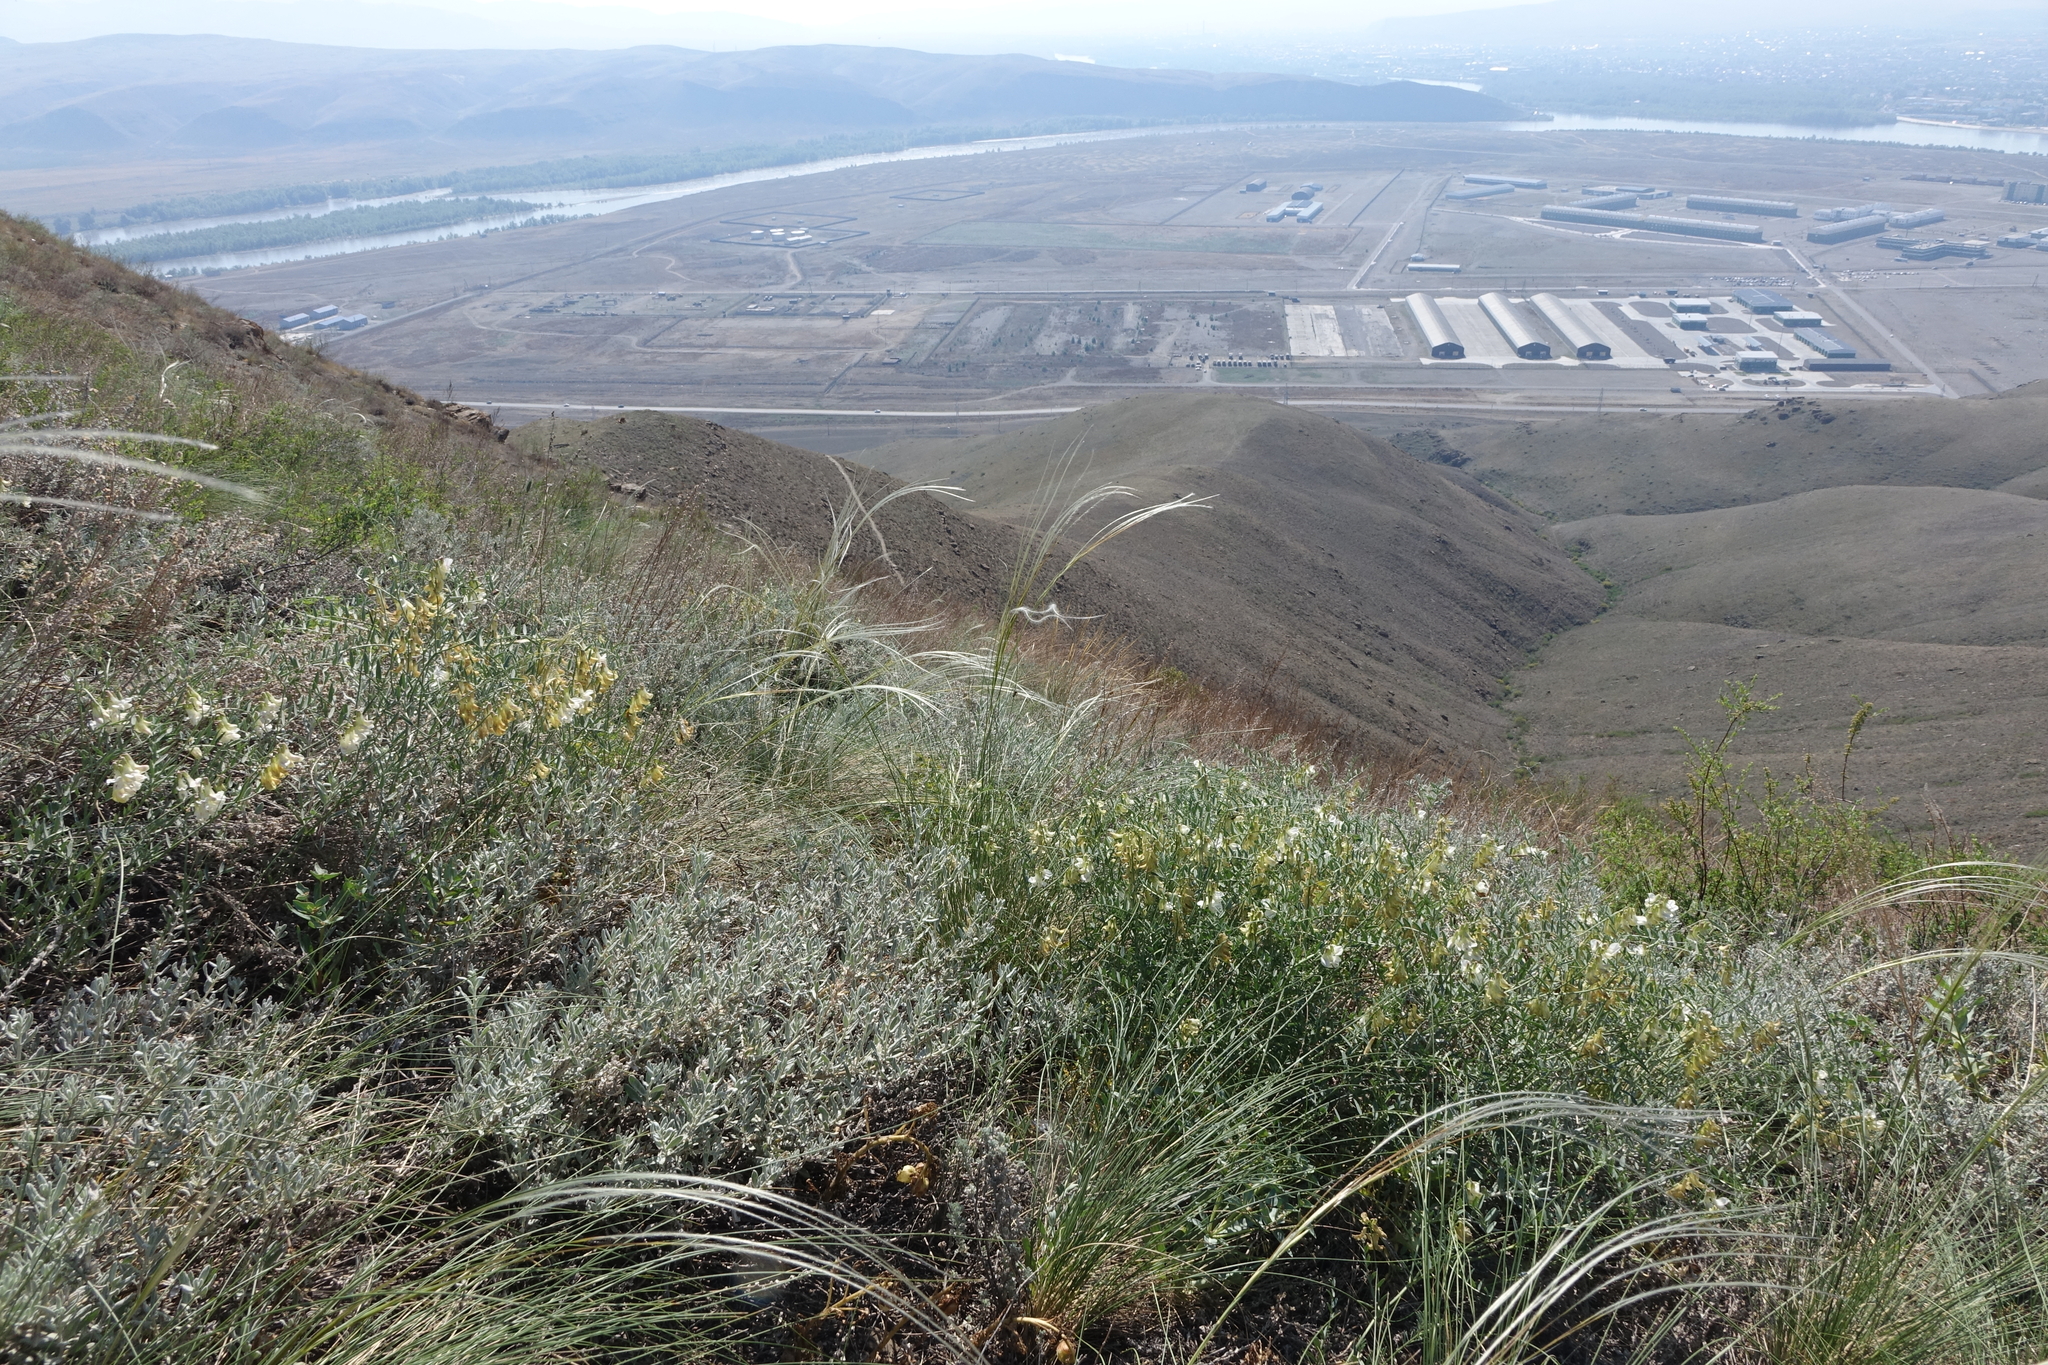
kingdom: Plantae
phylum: Tracheophyta
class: Magnoliopsida
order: Fabales
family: Fabaceae
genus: Vicia
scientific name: Vicia costata
